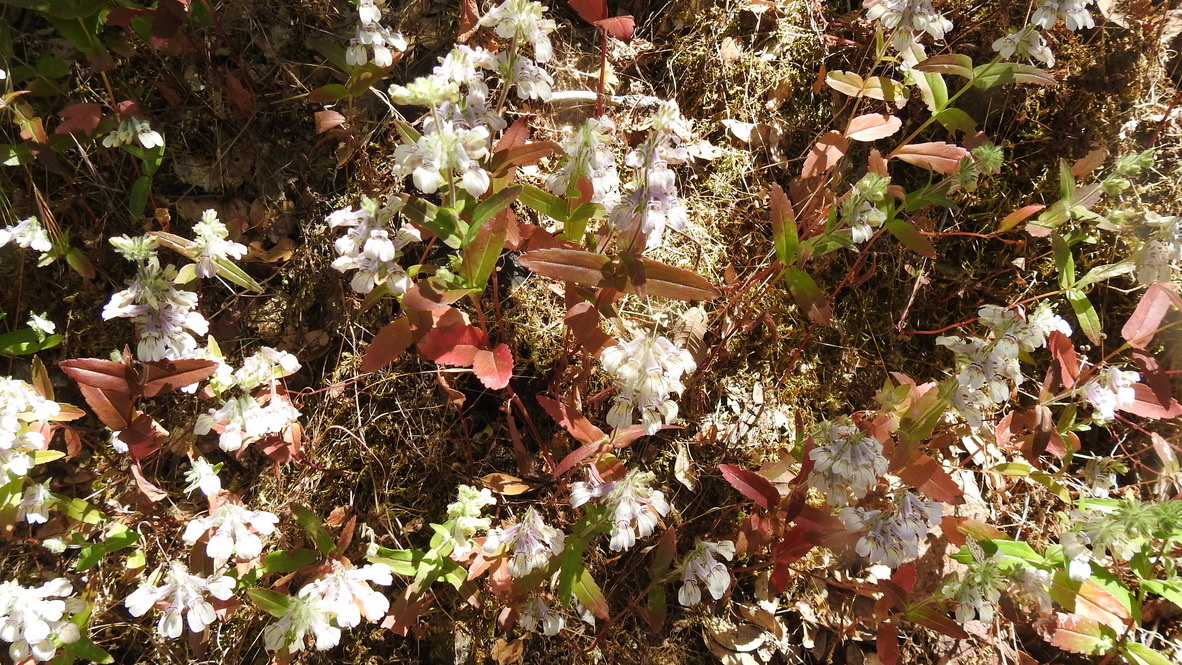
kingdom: Plantae
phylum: Tracheophyta
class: Magnoliopsida
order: Lamiales
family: Plantaginaceae
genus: Collinsia
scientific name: Collinsia tinctoria
